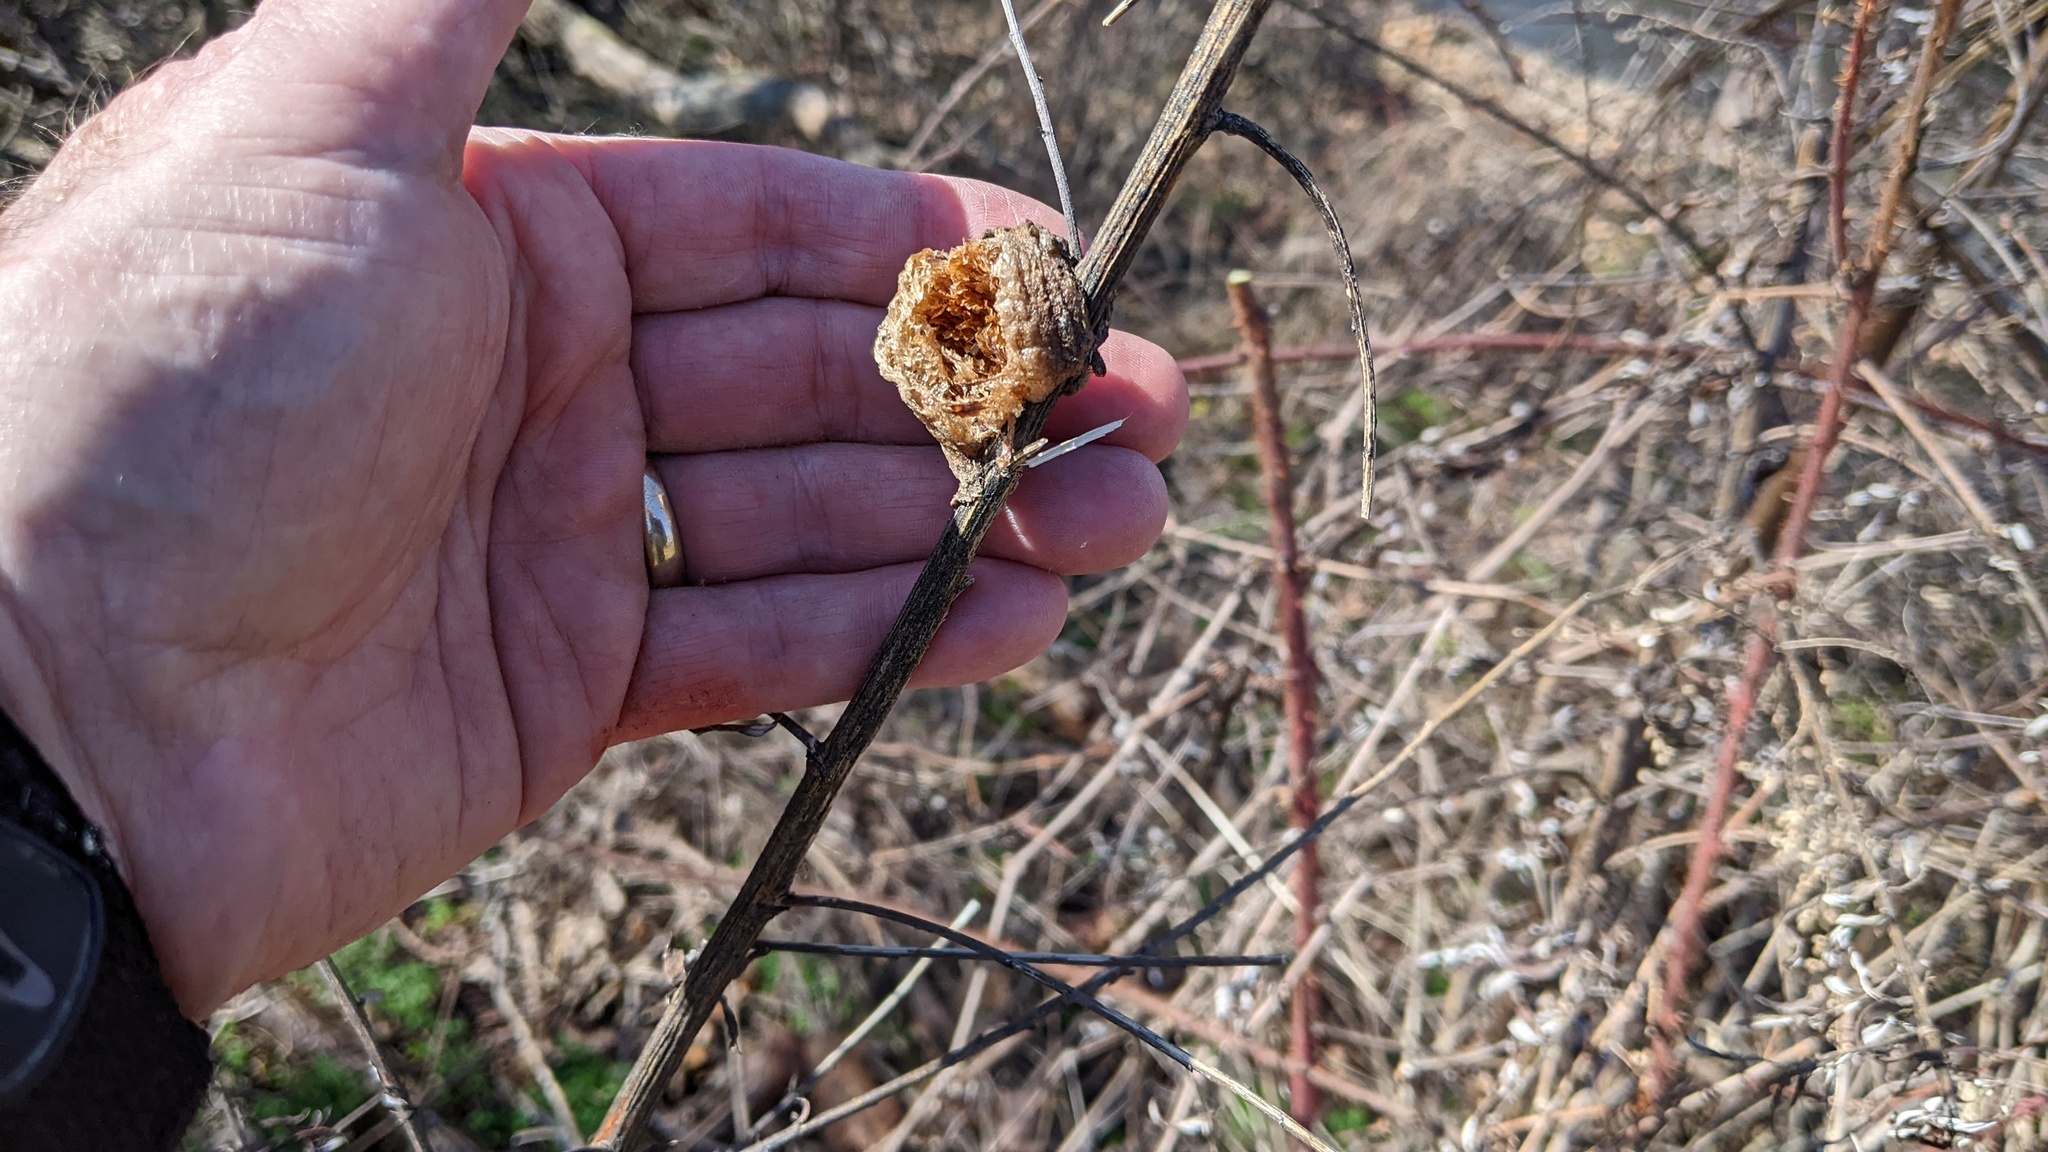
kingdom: Animalia
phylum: Arthropoda
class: Insecta
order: Mantodea
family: Mantidae
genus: Tenodera
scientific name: Tenodera sinensis
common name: Chinese mantis
